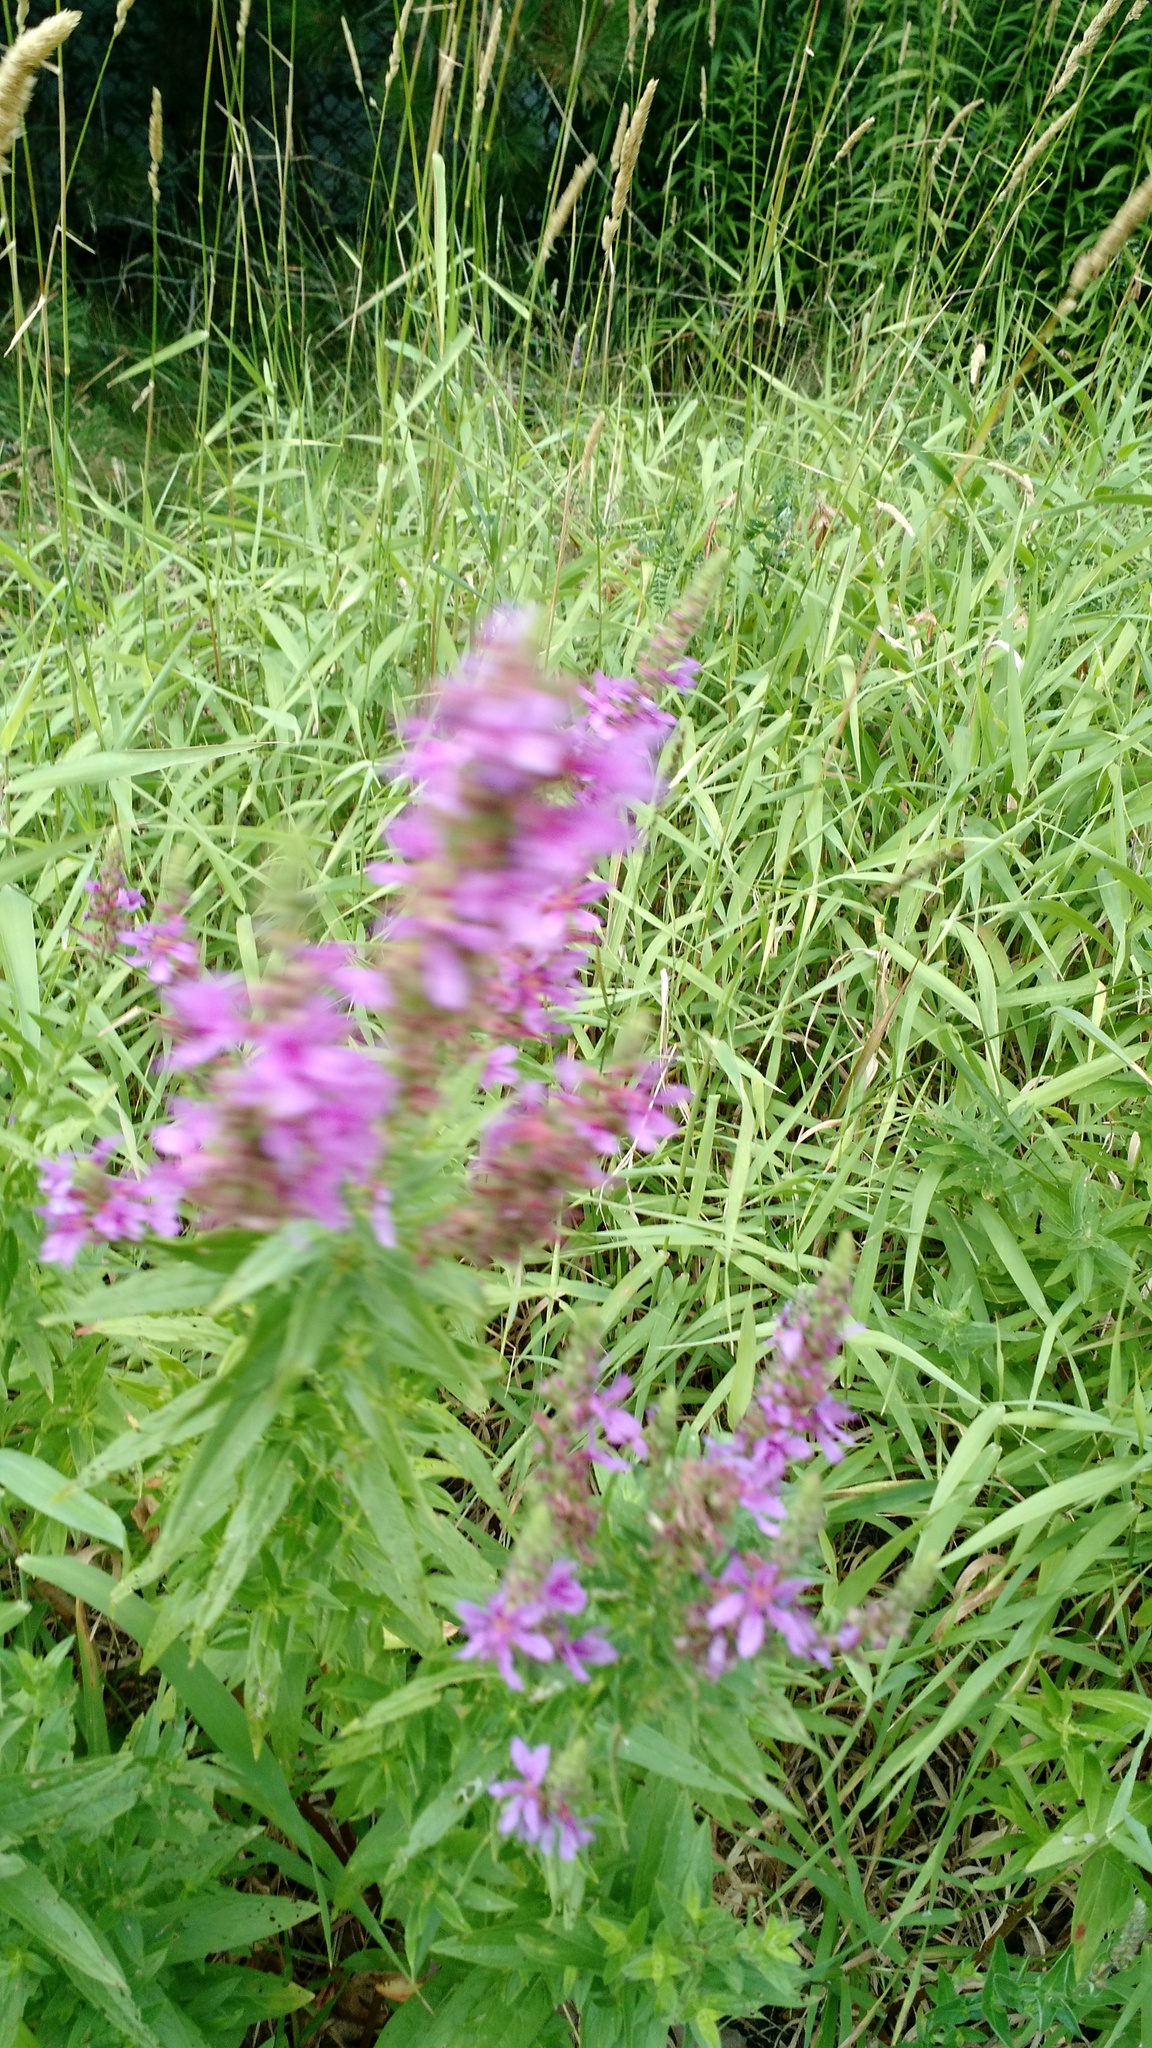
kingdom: Plantae
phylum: Tracheophyta
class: Magnoliopsida
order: Myrtales
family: Lythraceae
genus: Lythrum
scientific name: Lythrum salicaria
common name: Purple loosestrife
